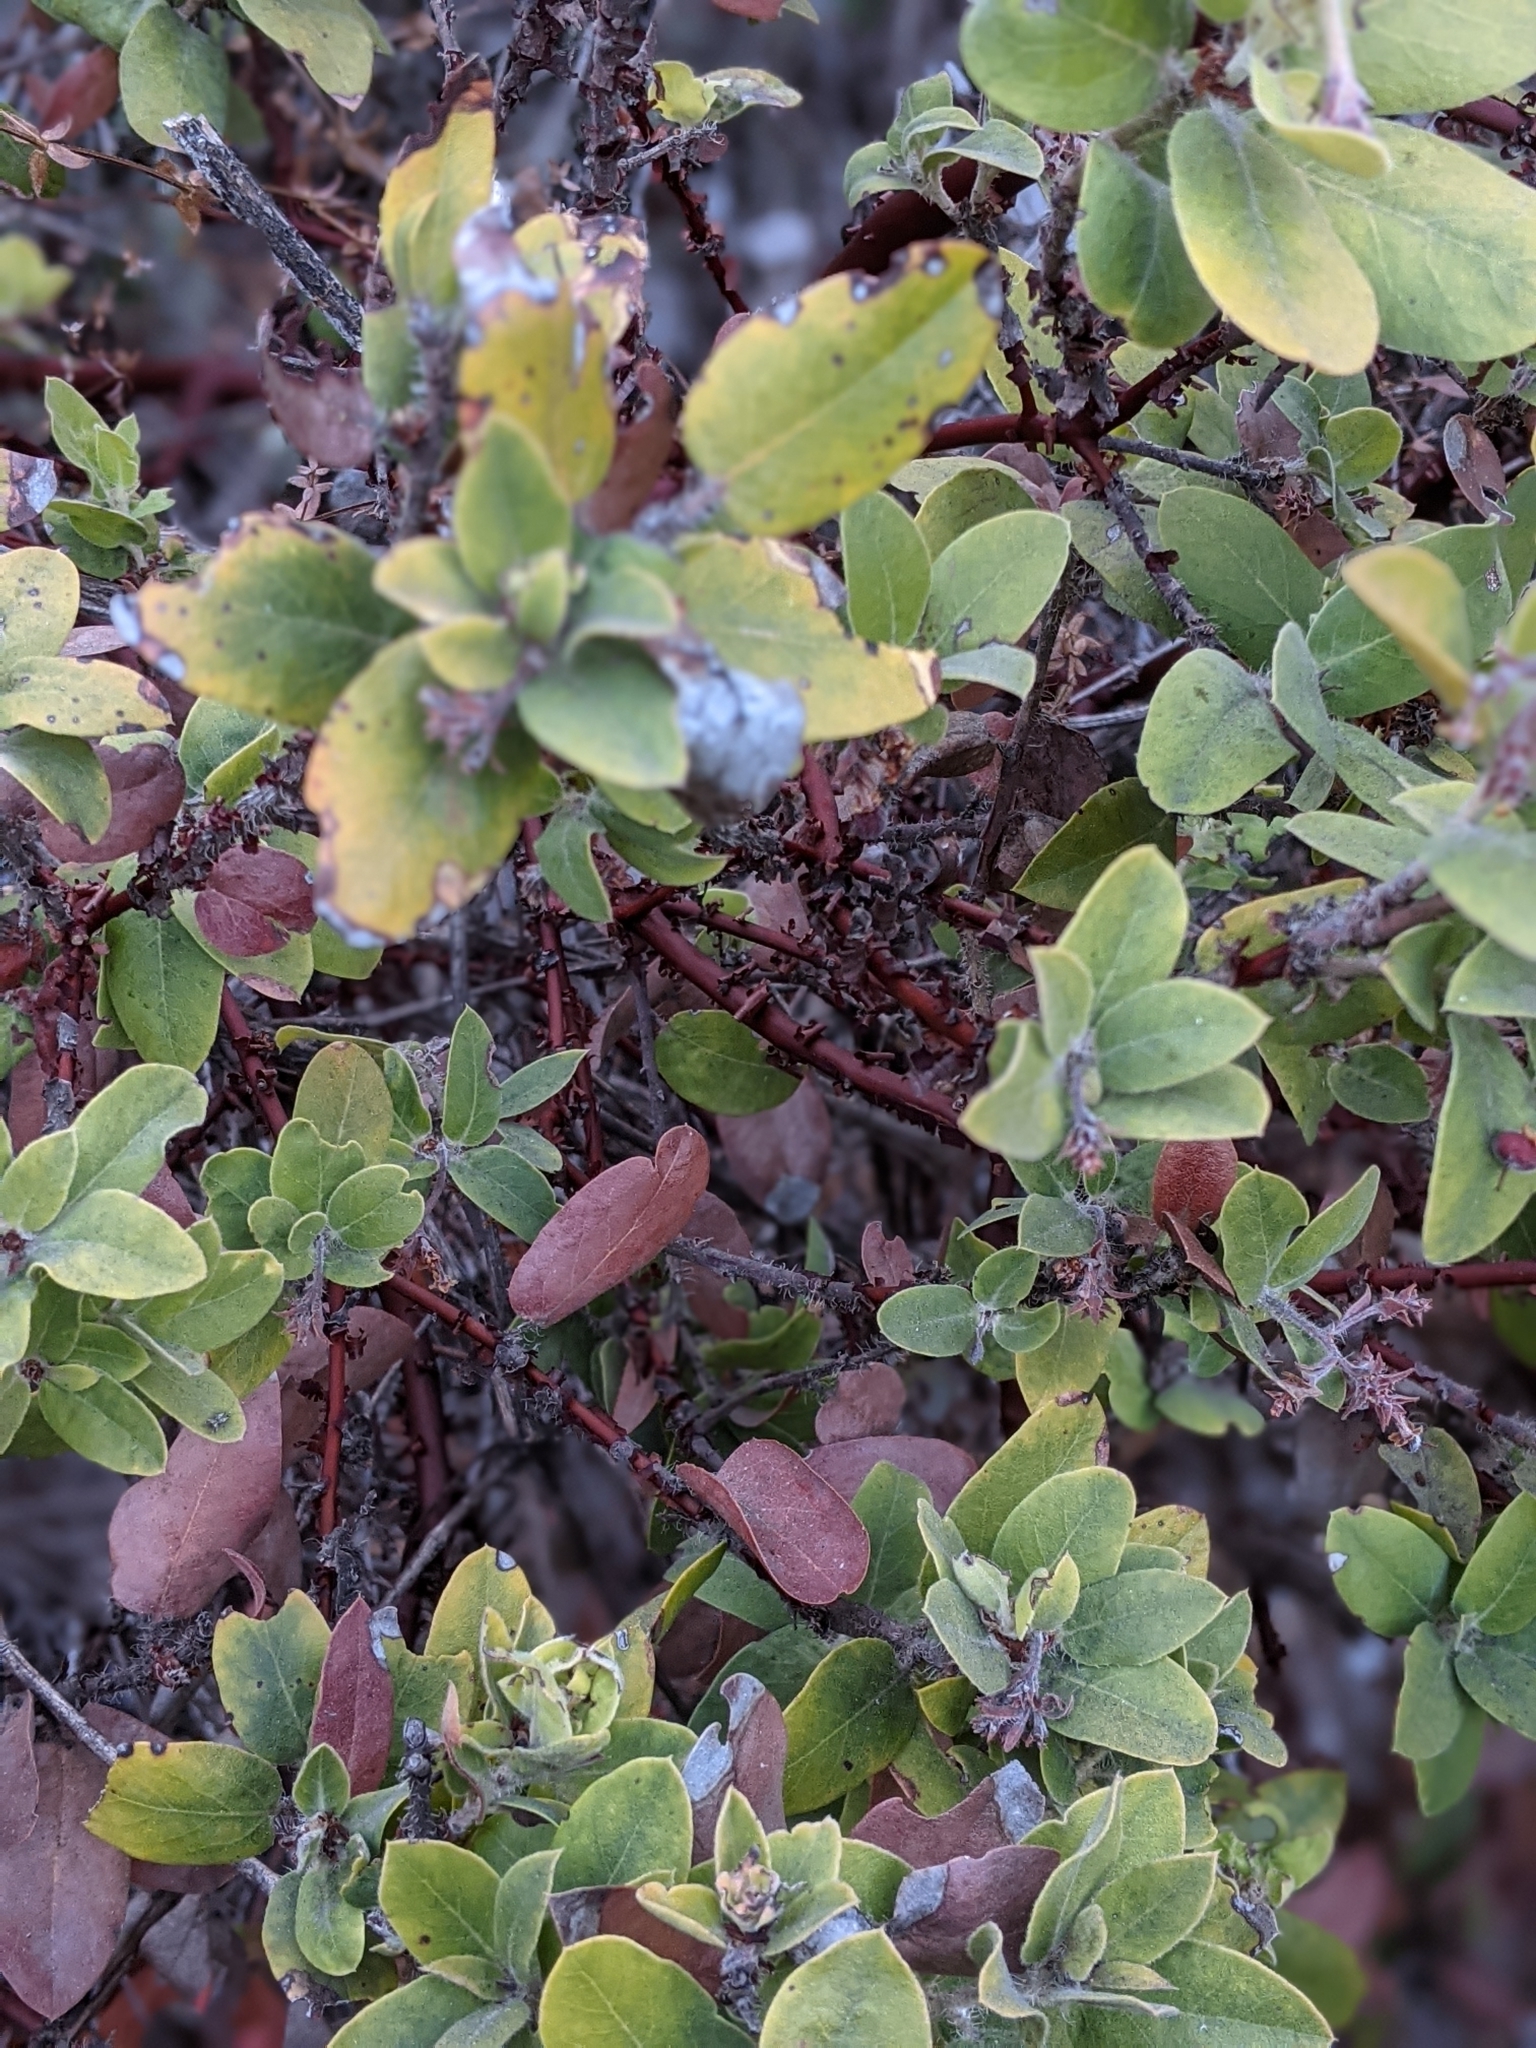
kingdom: Plantae
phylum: Tracheophyta
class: Magnoliopsida
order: Ericales
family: Ericaceae
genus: Arctostaphylos
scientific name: Arctostaphylos crustacea
